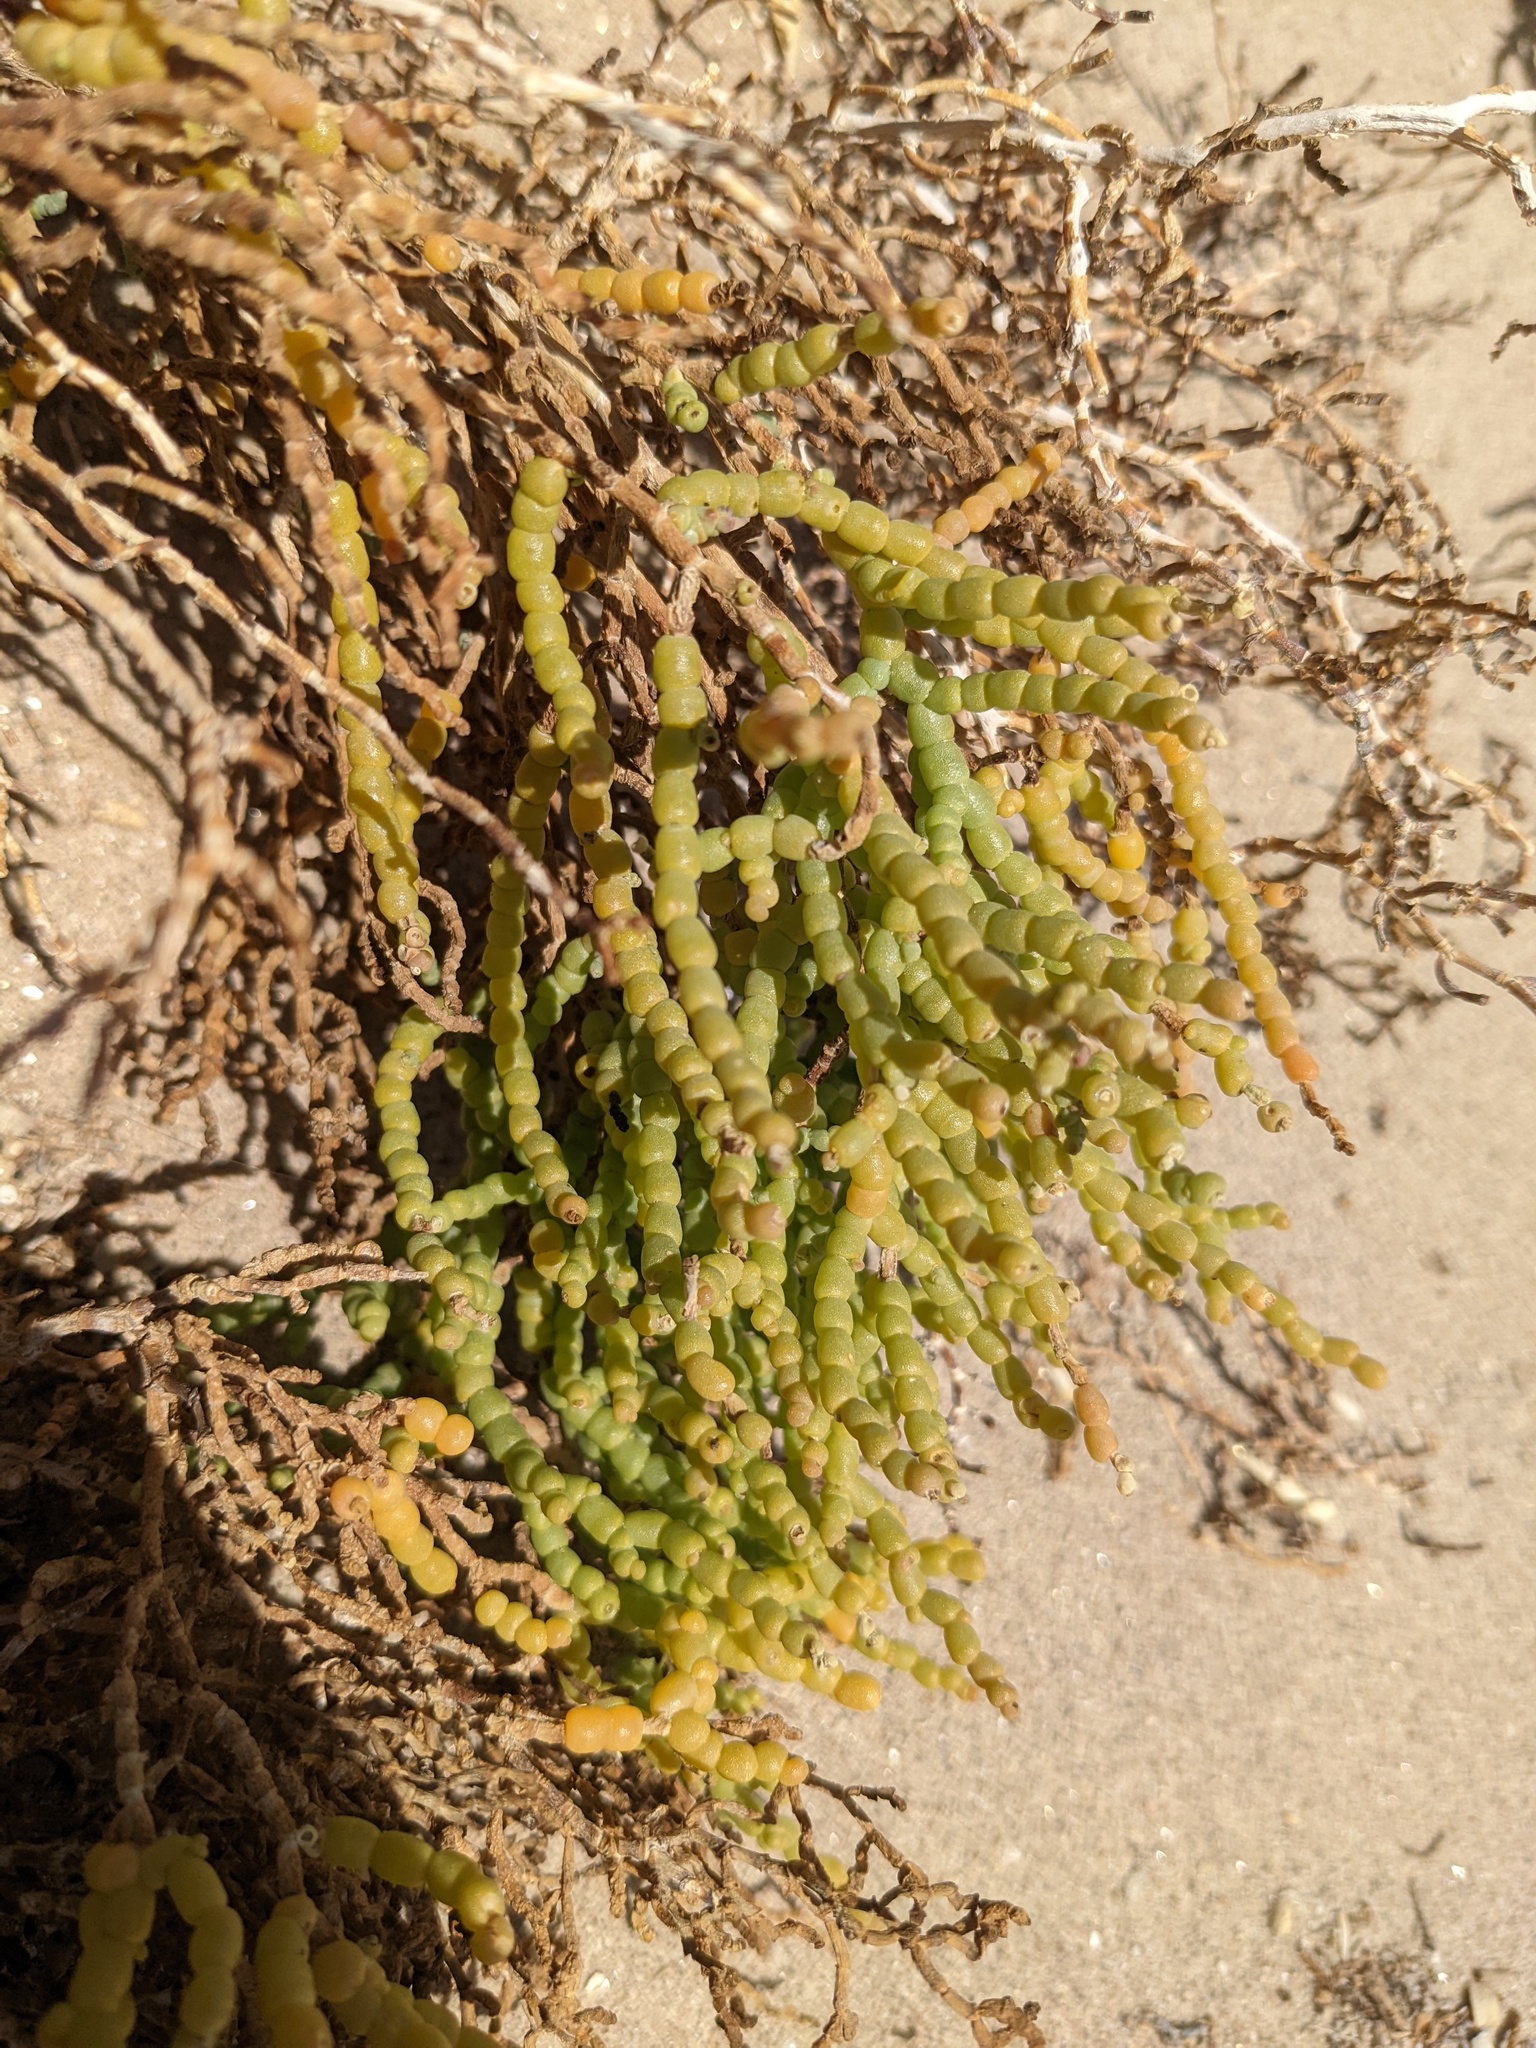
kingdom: Plantae
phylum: Tracheophyta
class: Magnoliopsida
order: Caryophyllales
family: Amaranthaceae
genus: Allenrolfea
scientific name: Allenrolfea occidentalis
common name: Iodine-bush
